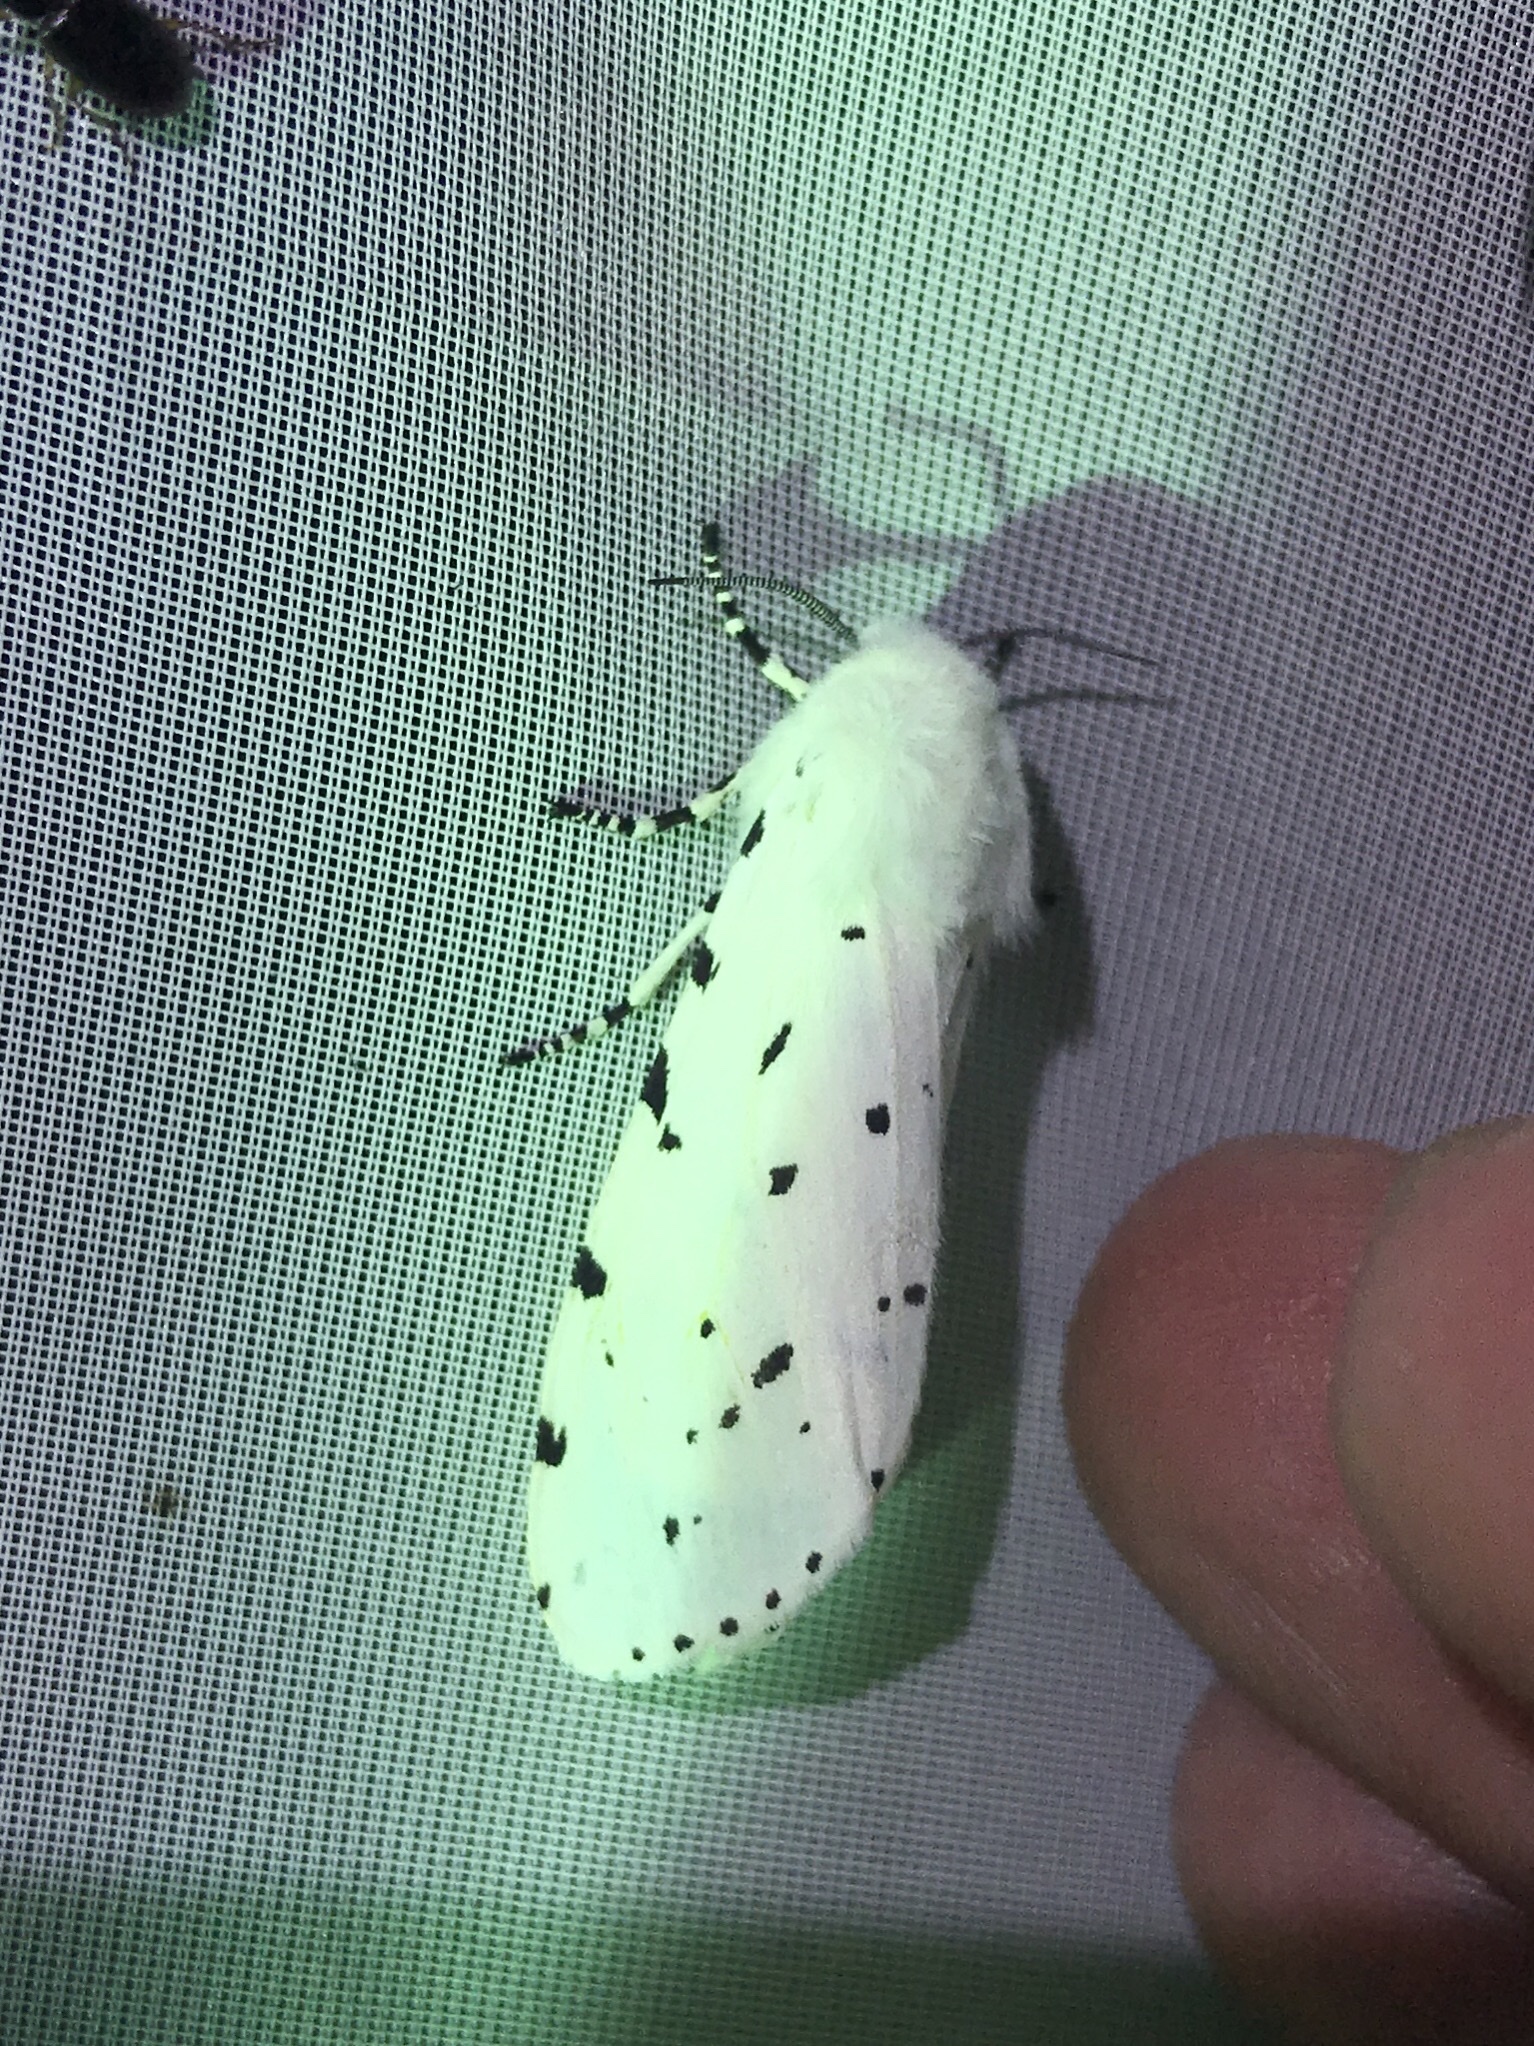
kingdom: Animalia
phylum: Arthropoda
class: Insecta
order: Lepidoptera
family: Erebidae
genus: Estigmene
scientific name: Estigmene acrea
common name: Salt marsh moth
